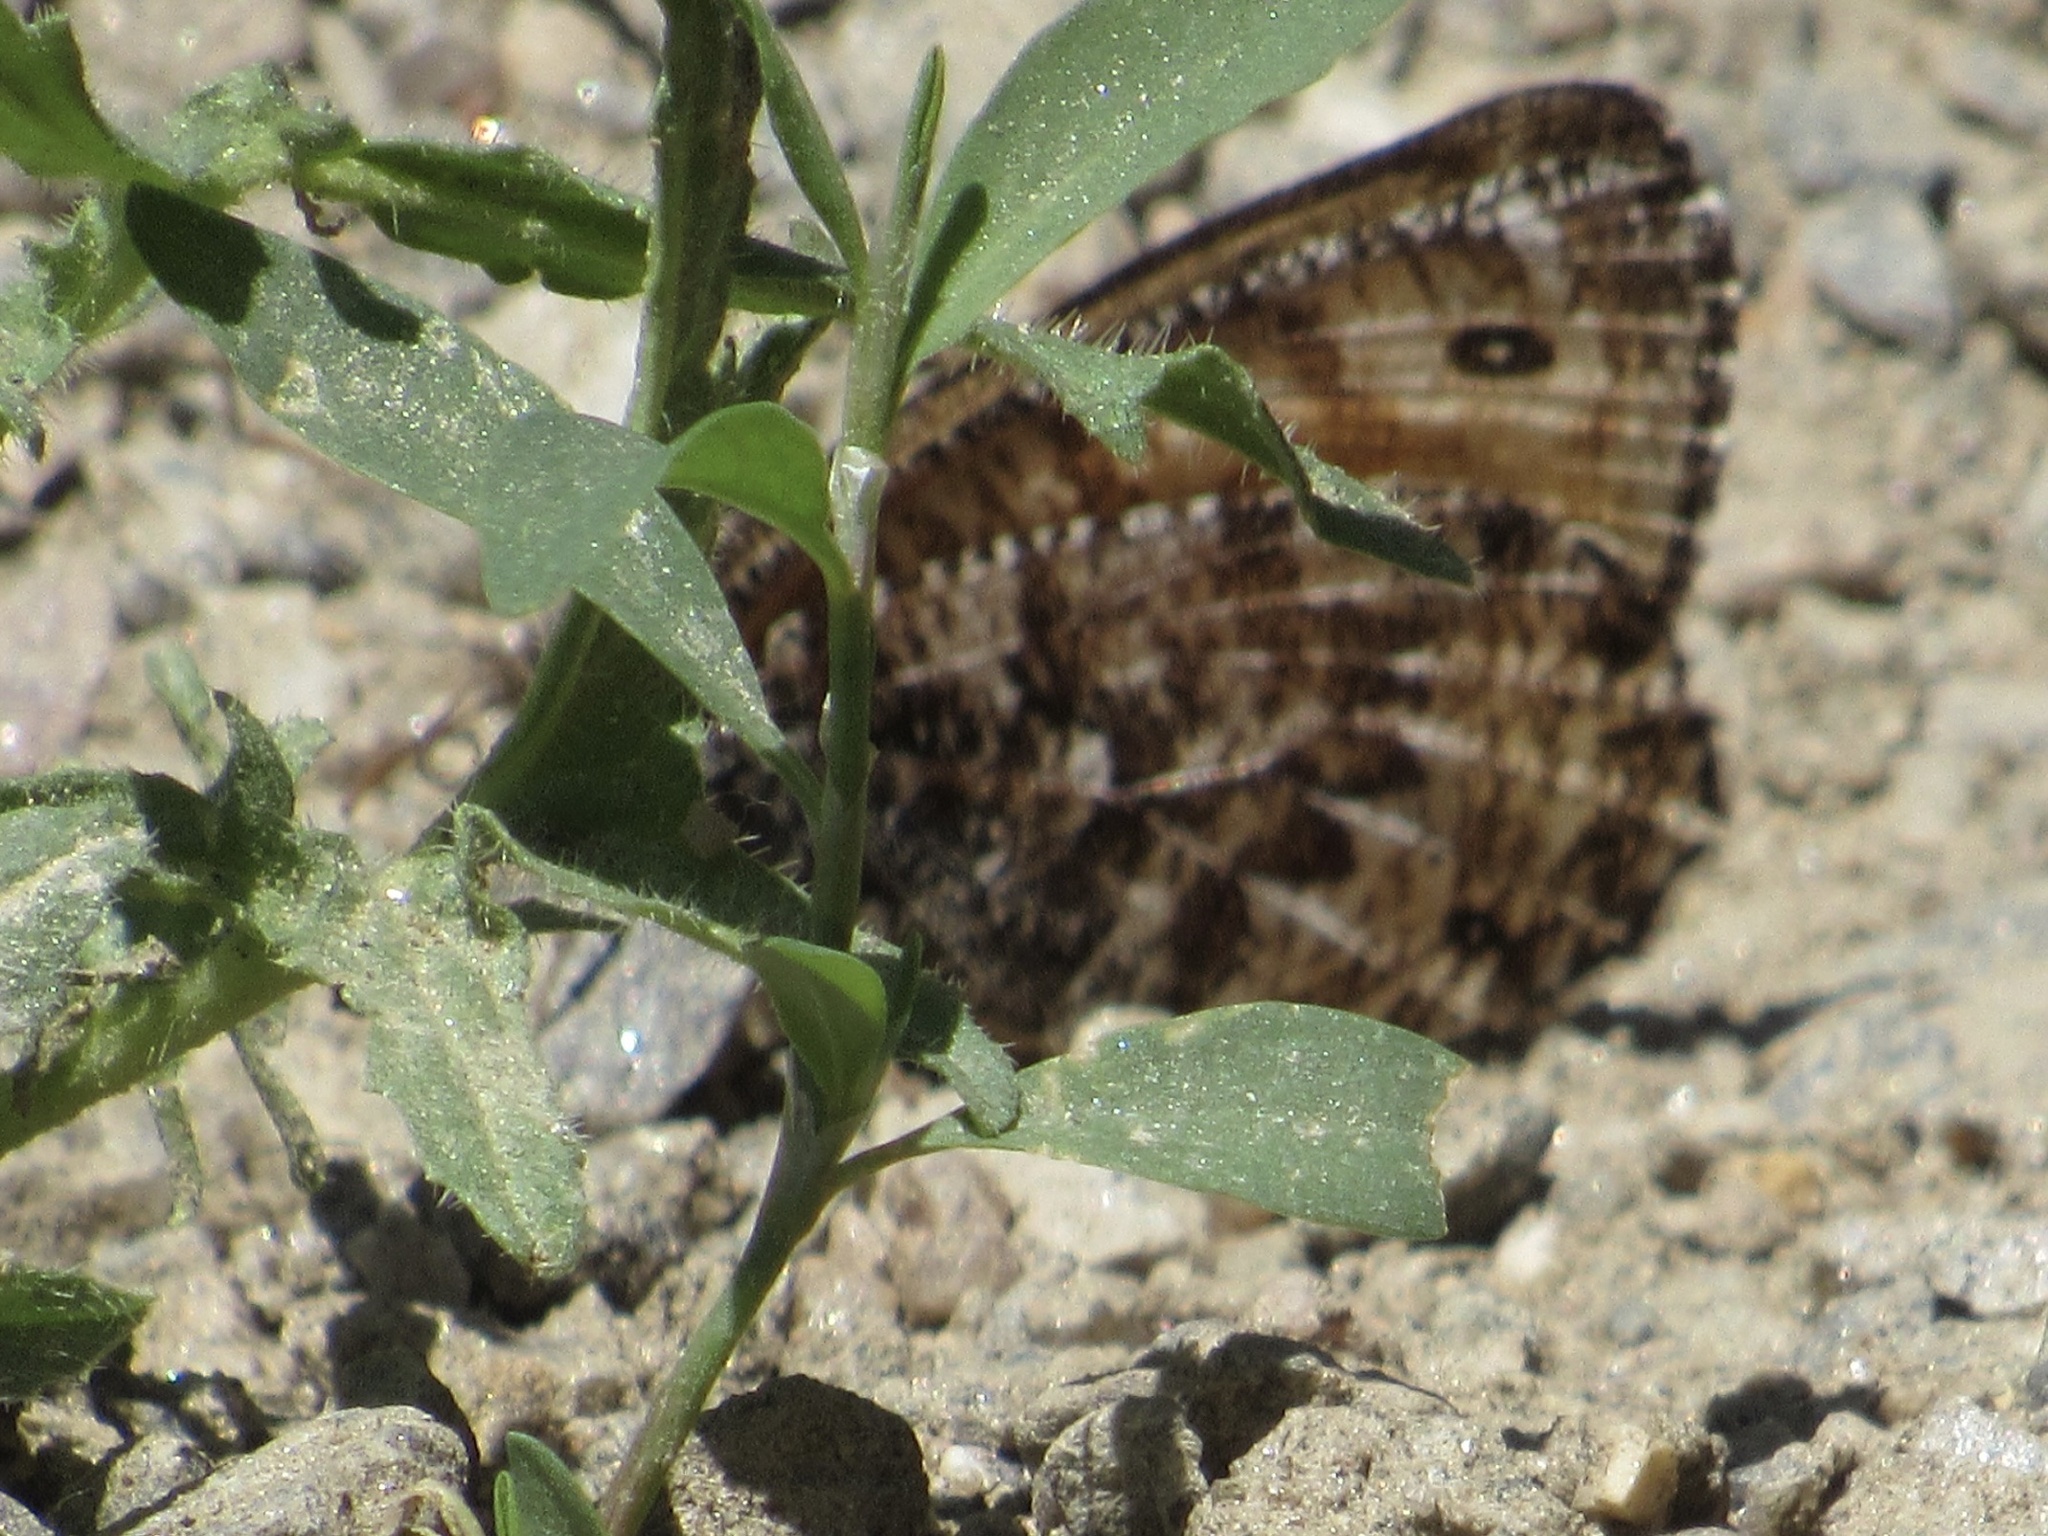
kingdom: Animalia
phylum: Arthropoda
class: Insecta
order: Lepidoptera
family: Nymphalidae
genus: Oeneis
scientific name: Oeneis chryxus
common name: Chryxus arctic
